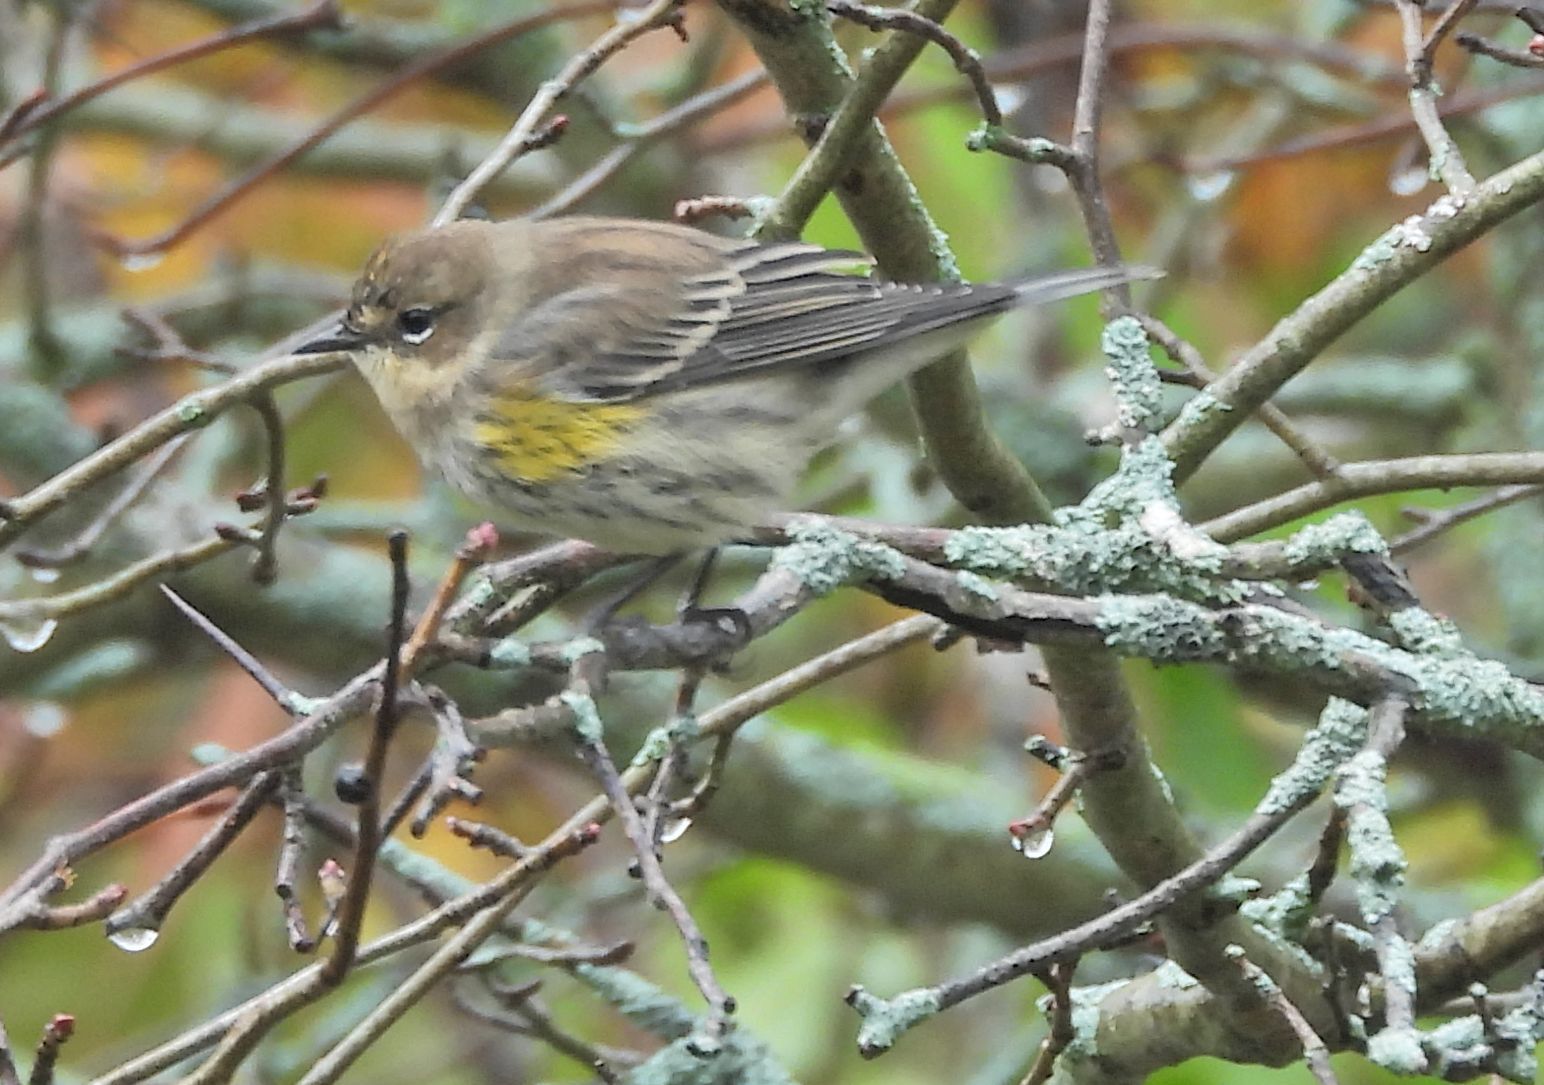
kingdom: Animalia
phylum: Chordata
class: Aves
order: Passeriformes
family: Parulidae
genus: Setophaga
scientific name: Setophaga coronata
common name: Myrtle warbler
